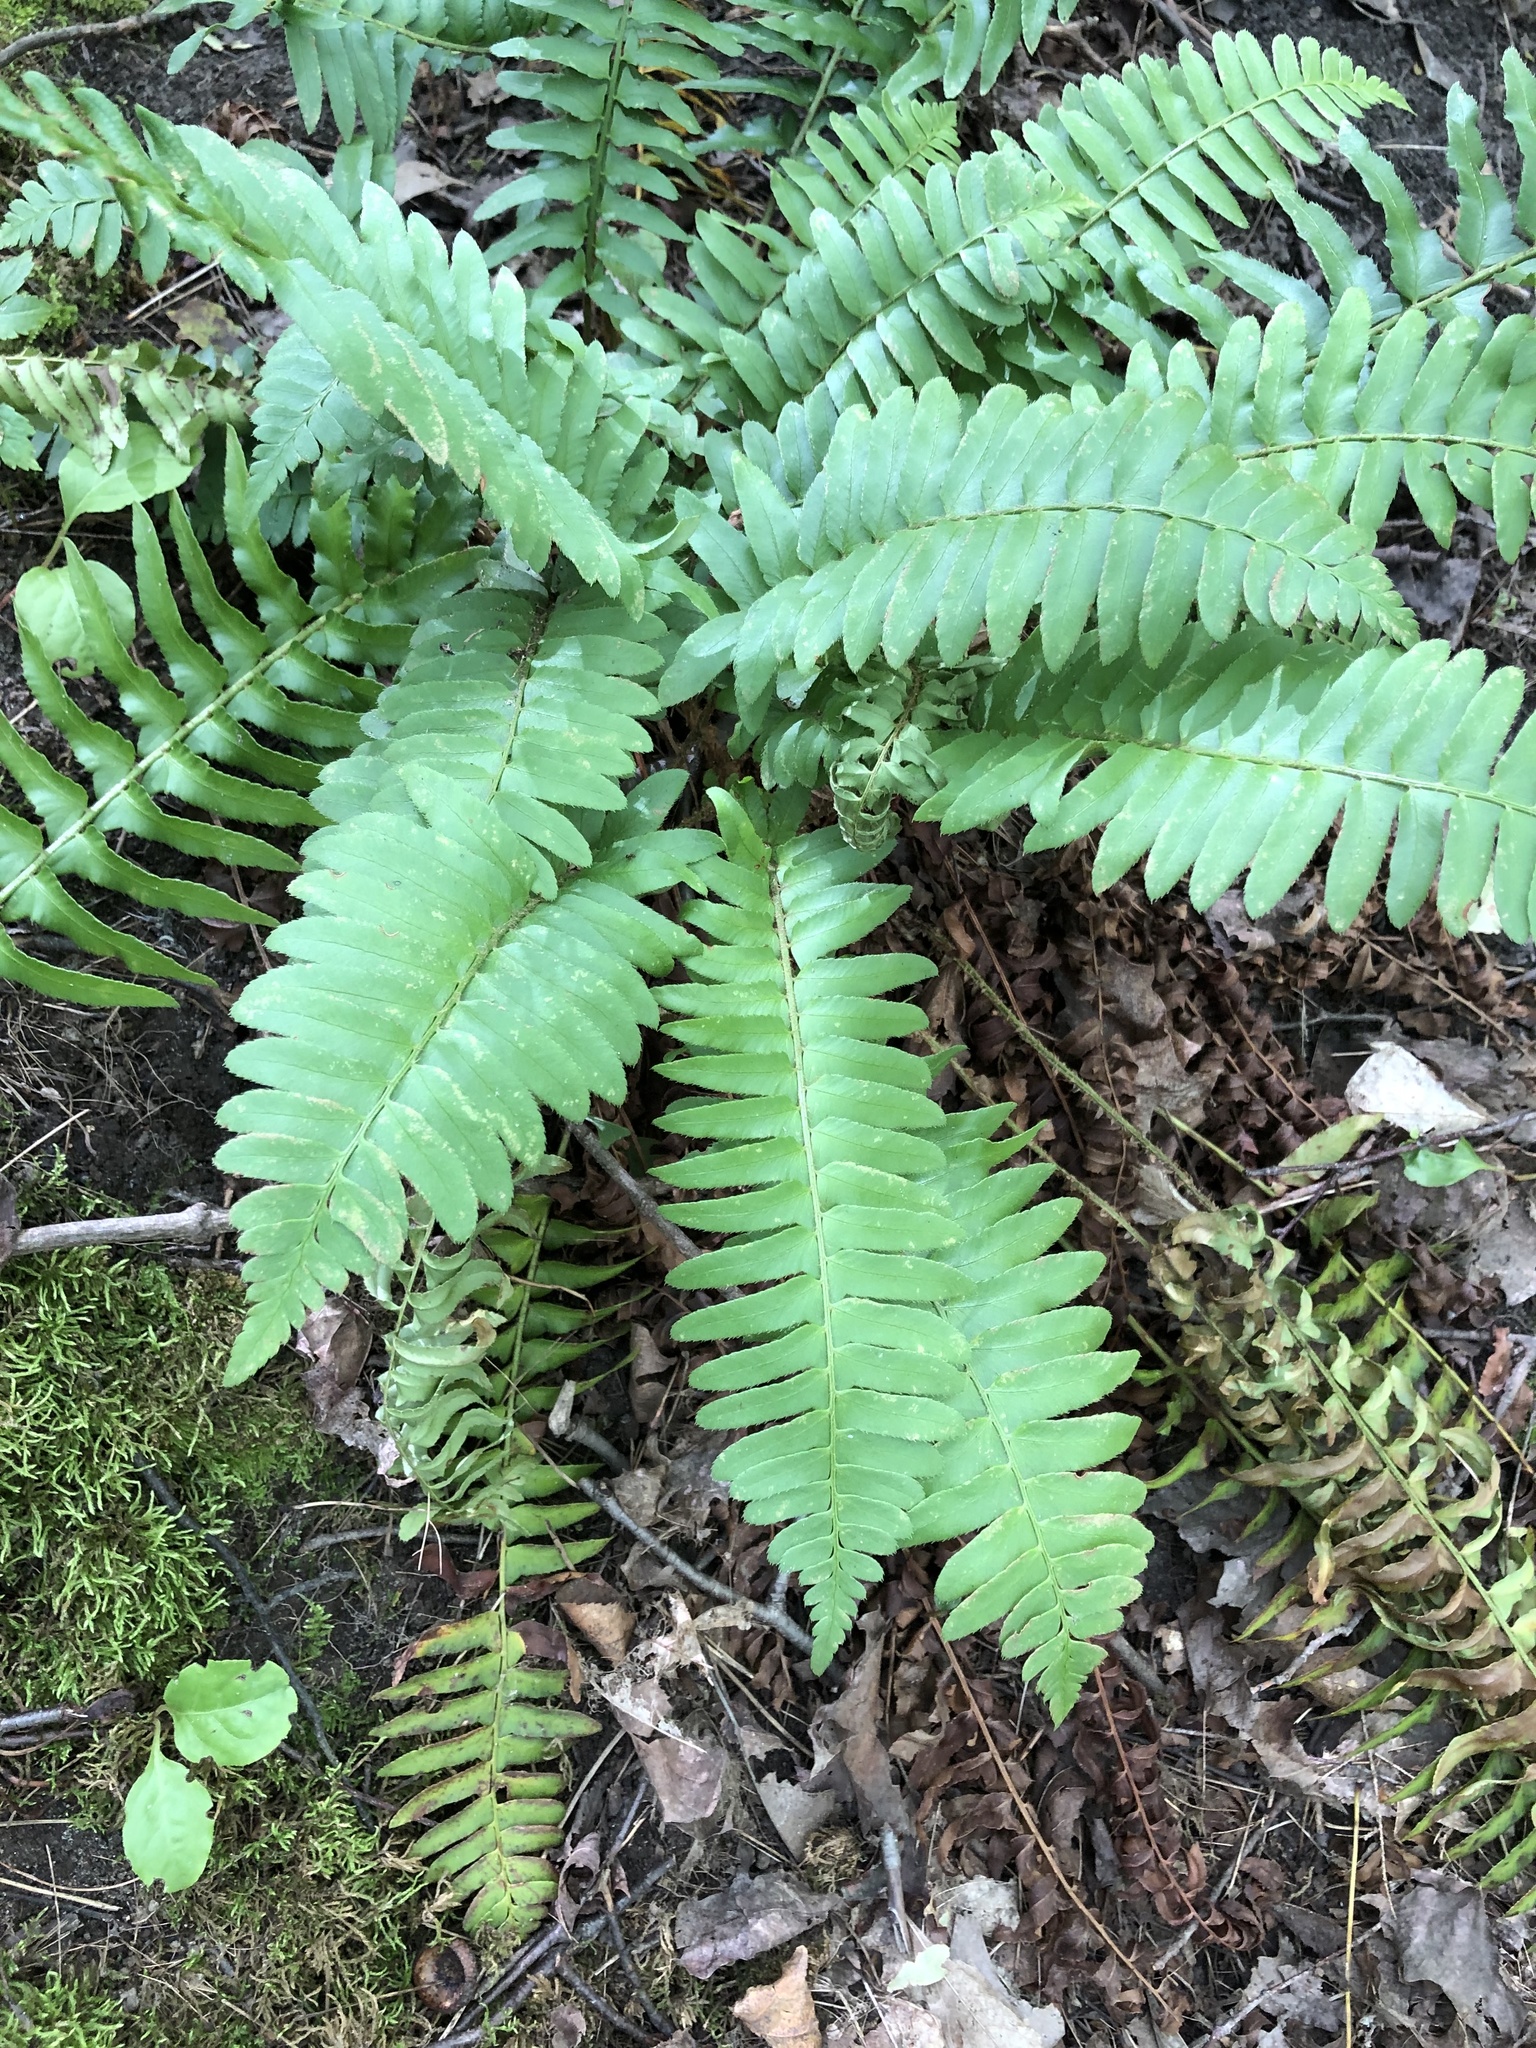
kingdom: Plantae
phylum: Tracheophyta
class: Polypodiopsida
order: Polypodiales
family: Dryopteridaceae
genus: Polystichum
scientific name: Polystichum acrostichoides
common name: Christmas fern
